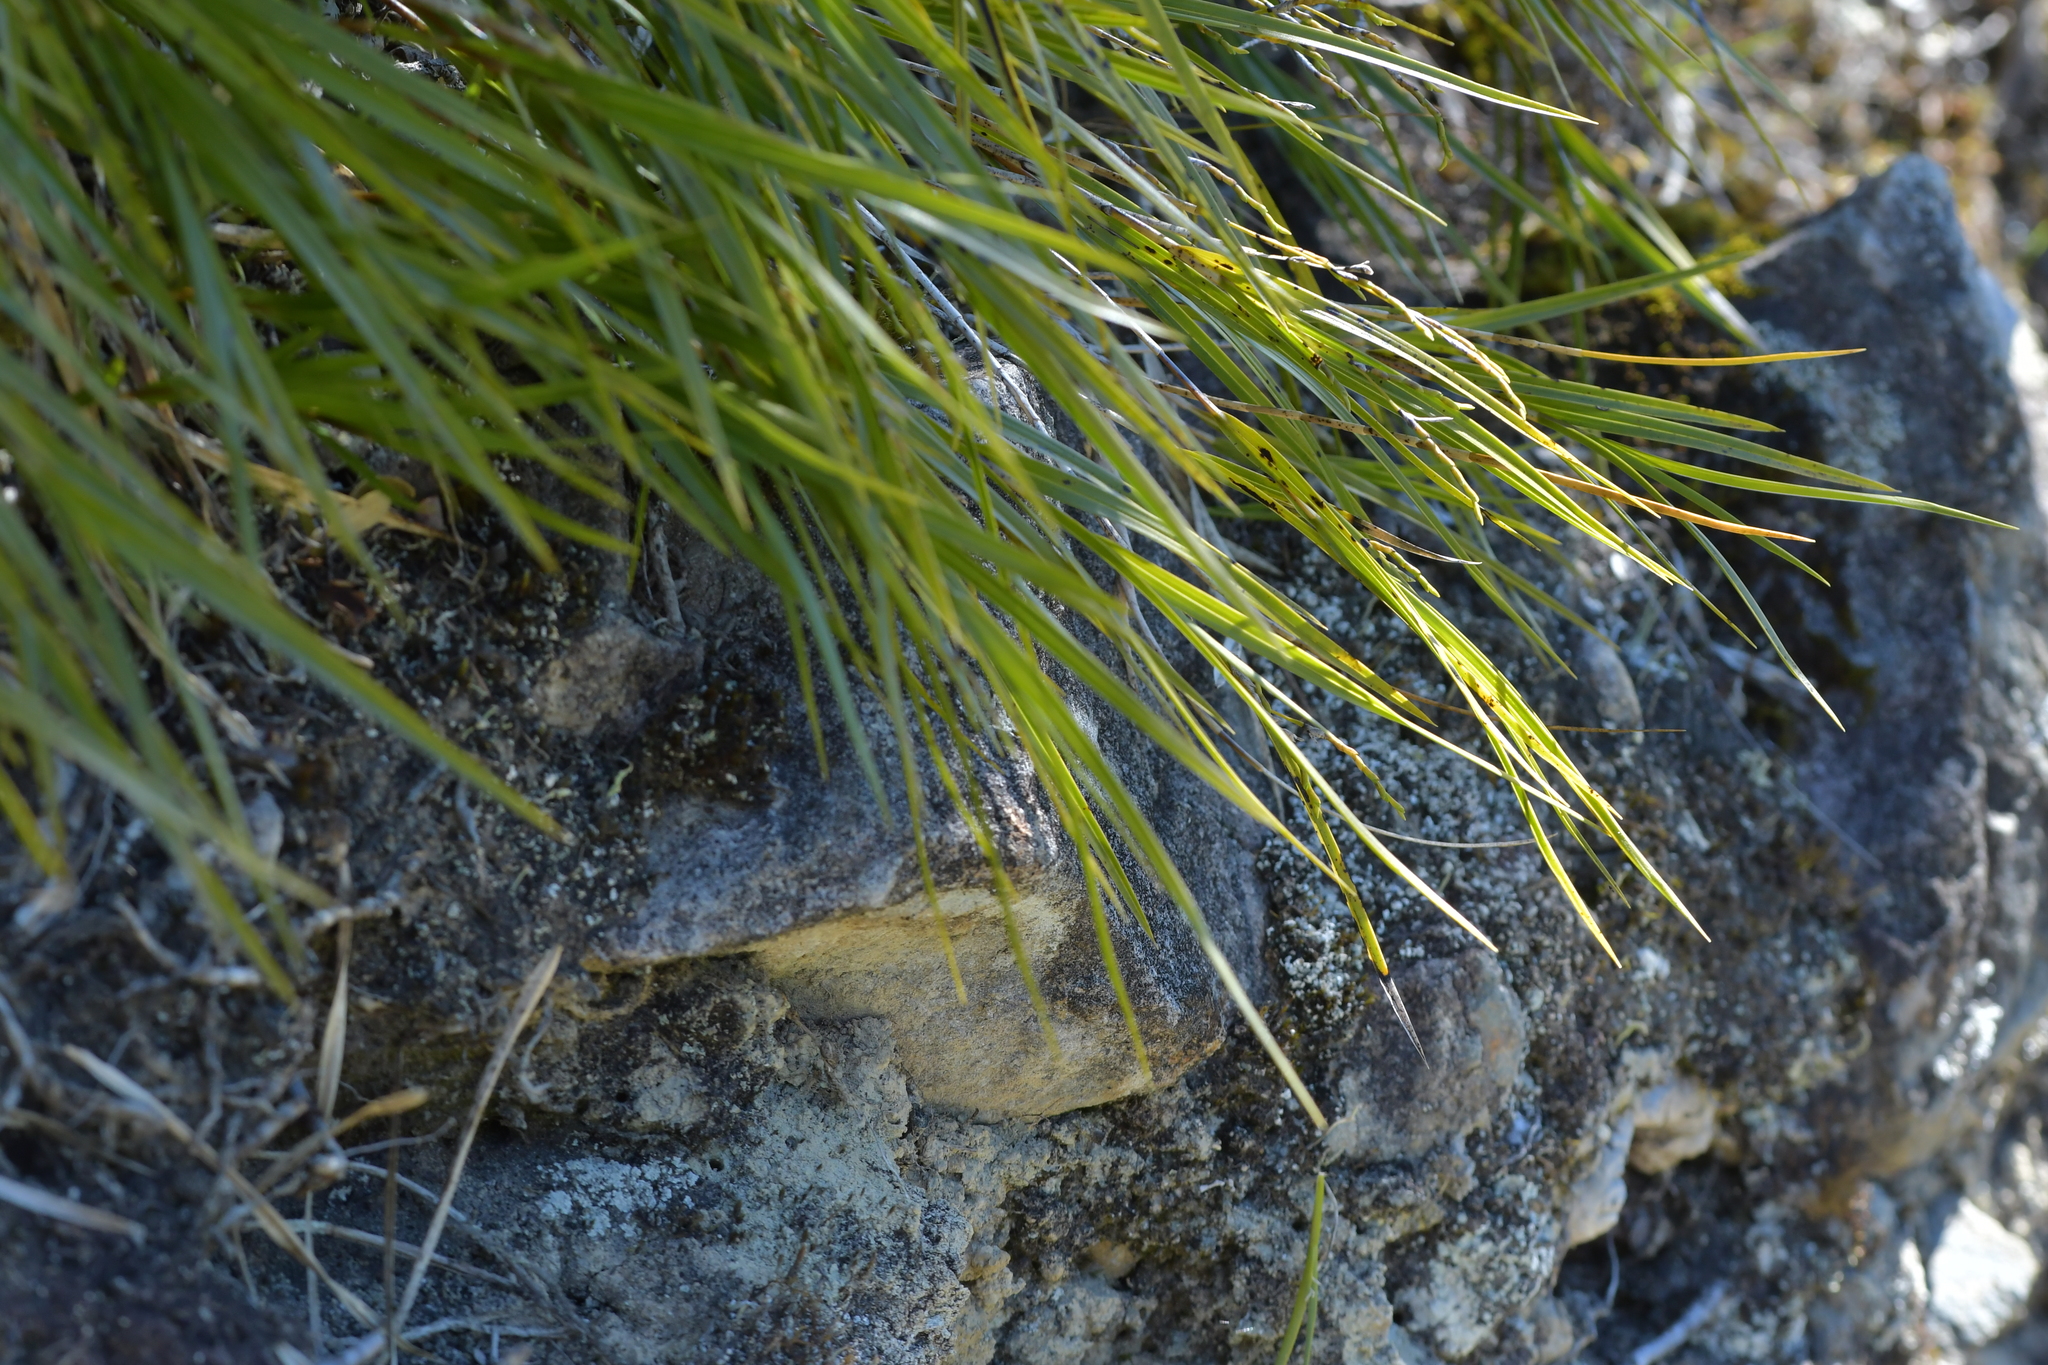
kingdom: Plantae
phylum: Tracheophyta
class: Liliopsida
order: Asparagales
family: Orchidaceae
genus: Earina
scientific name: Earina mucronata
